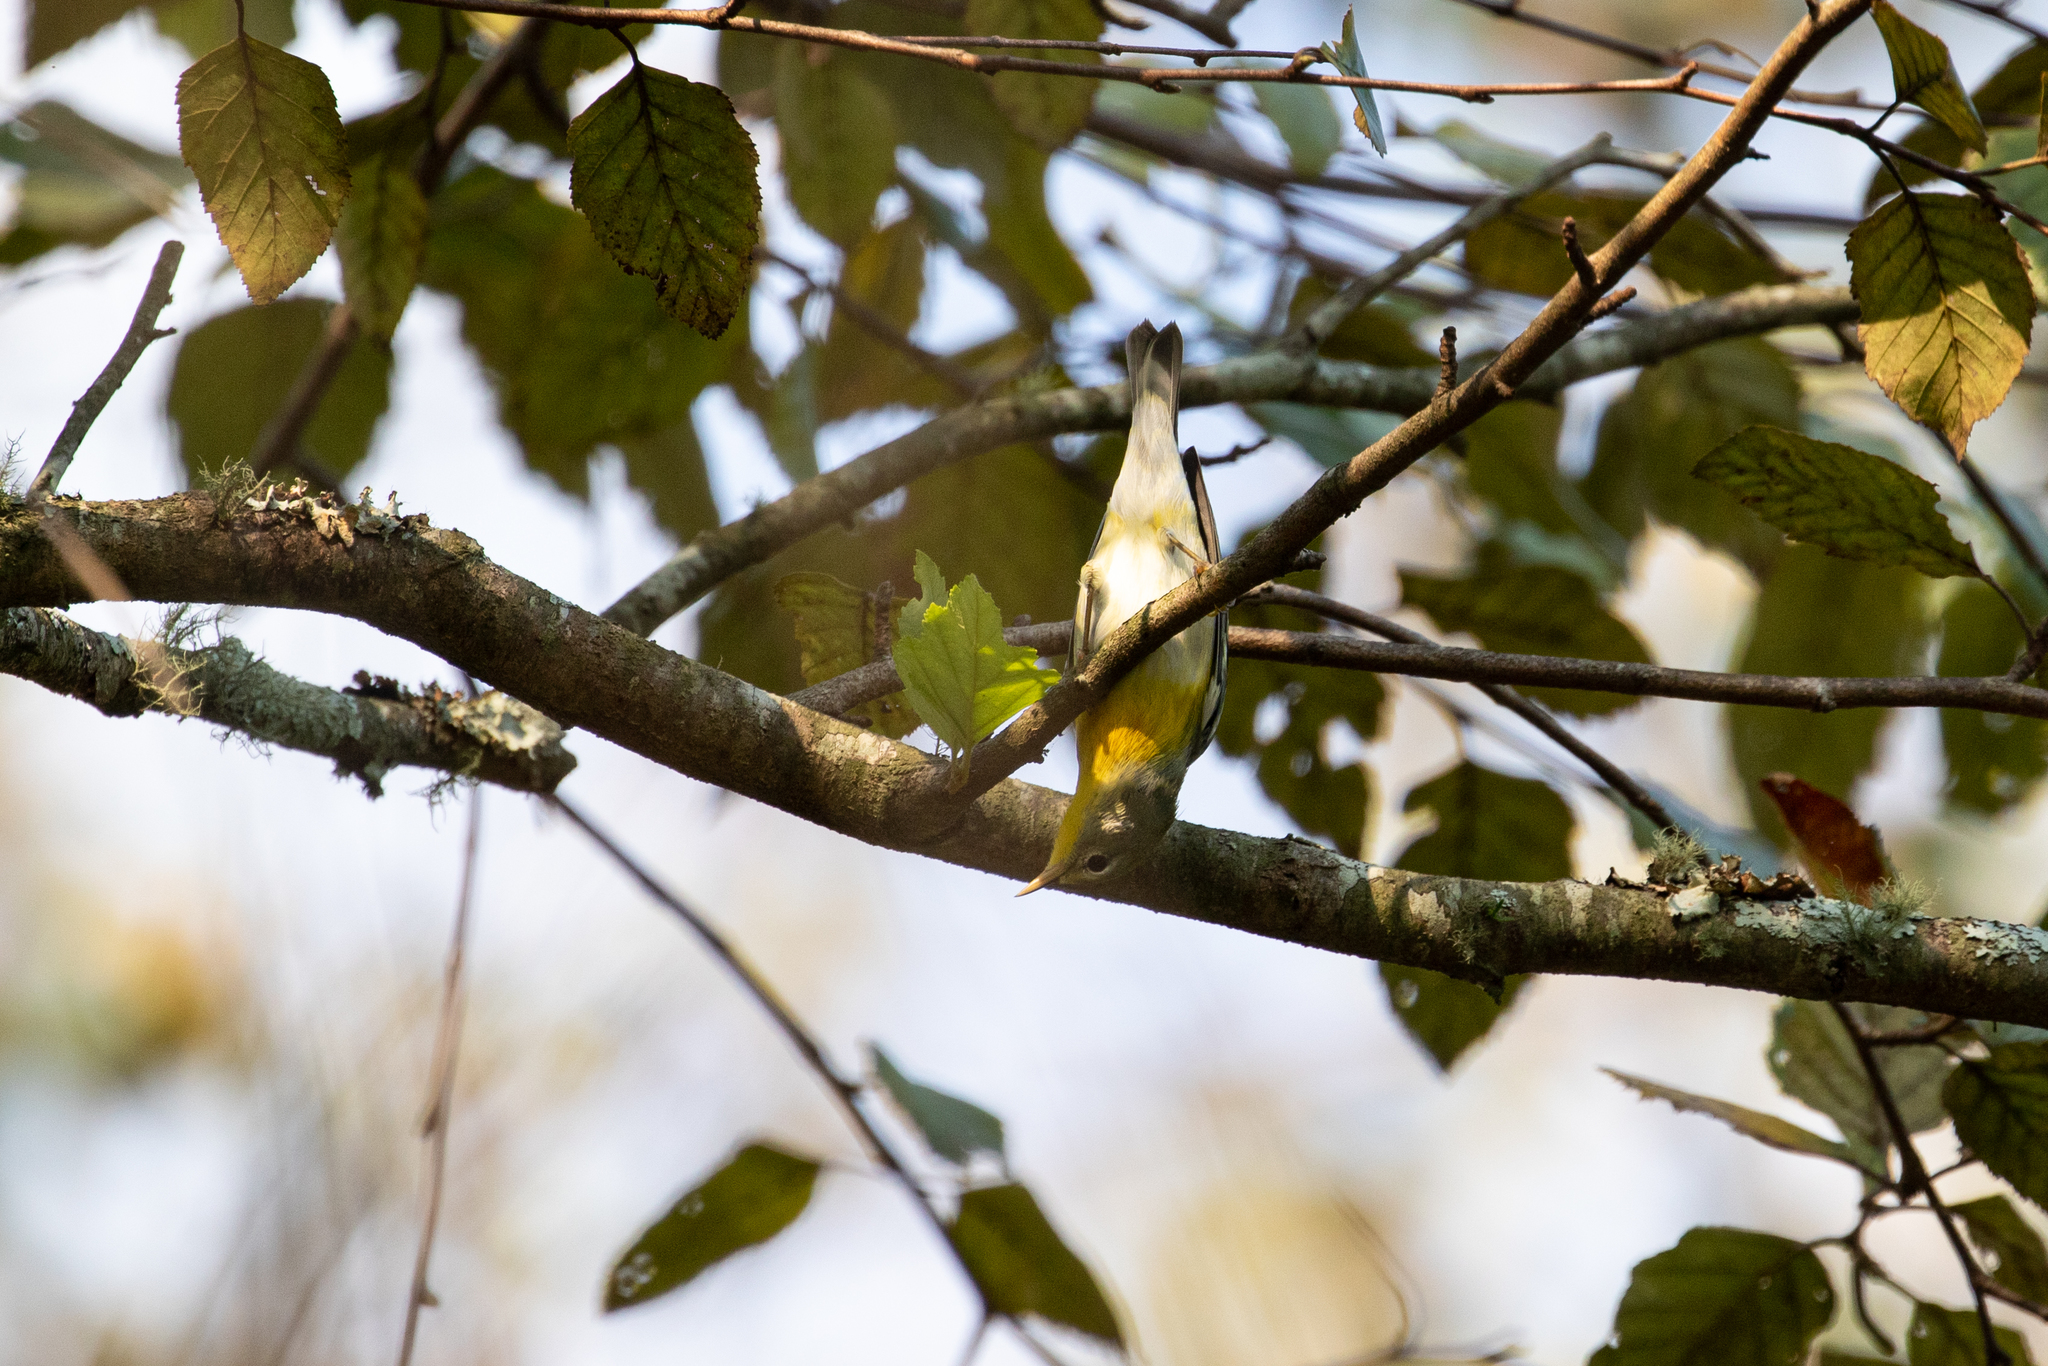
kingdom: Animalia
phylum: Chordata
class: Aves
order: Passeriformes
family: Parulidae
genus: Setophaga
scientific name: Setophaga americana
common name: Northern parula
